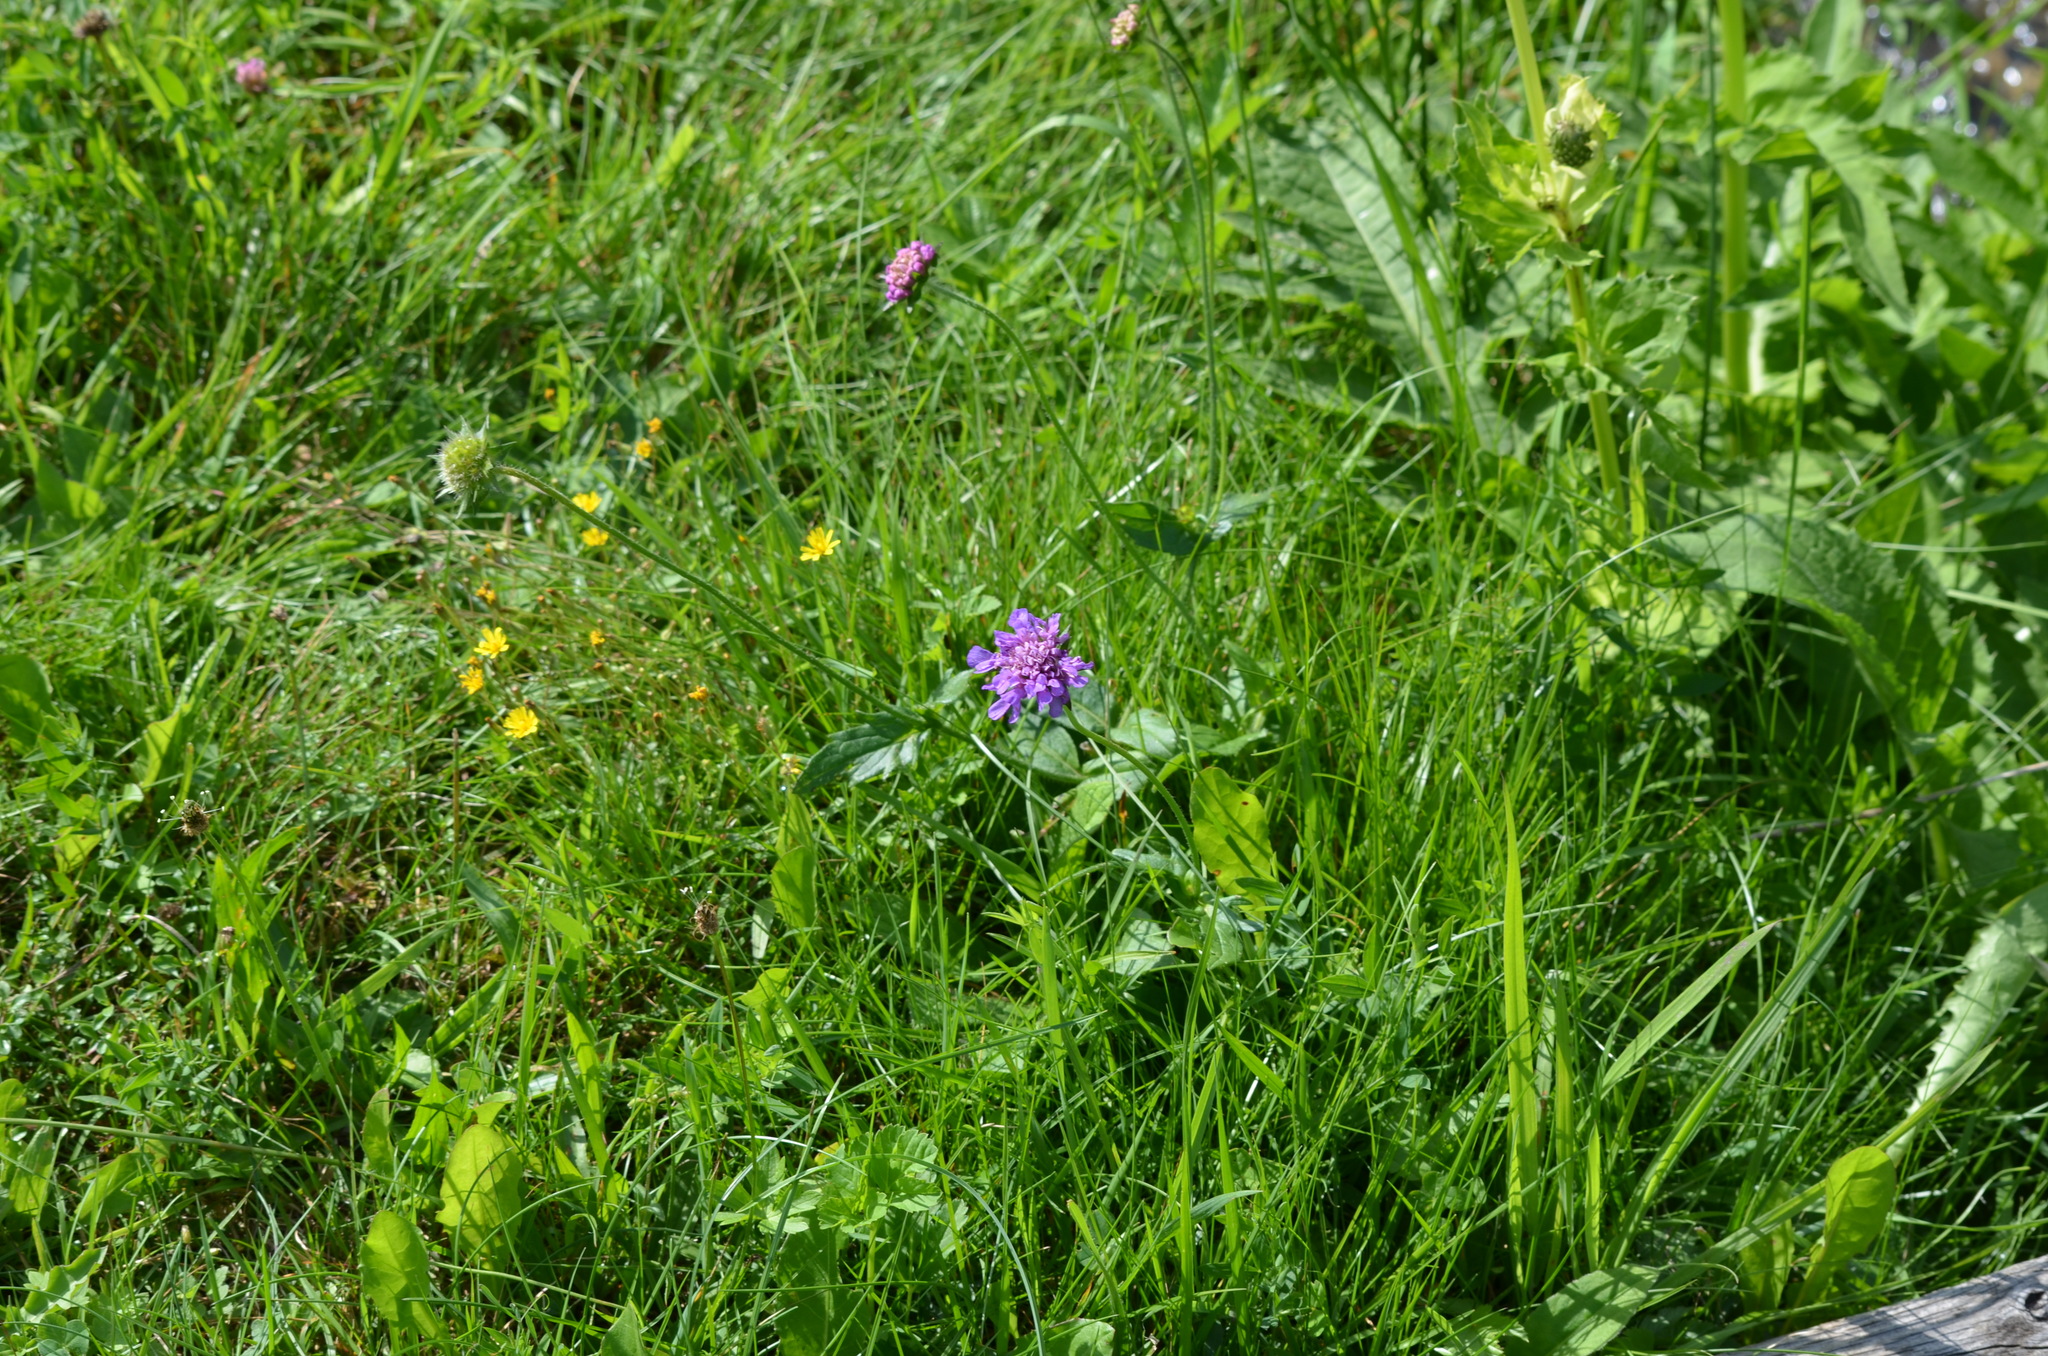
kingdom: Plantae
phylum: Tracheophyta
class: Magnoliopsida
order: Dipsacales
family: Caprifoliaceae
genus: Knautia
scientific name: Knautia dipsacifolia
